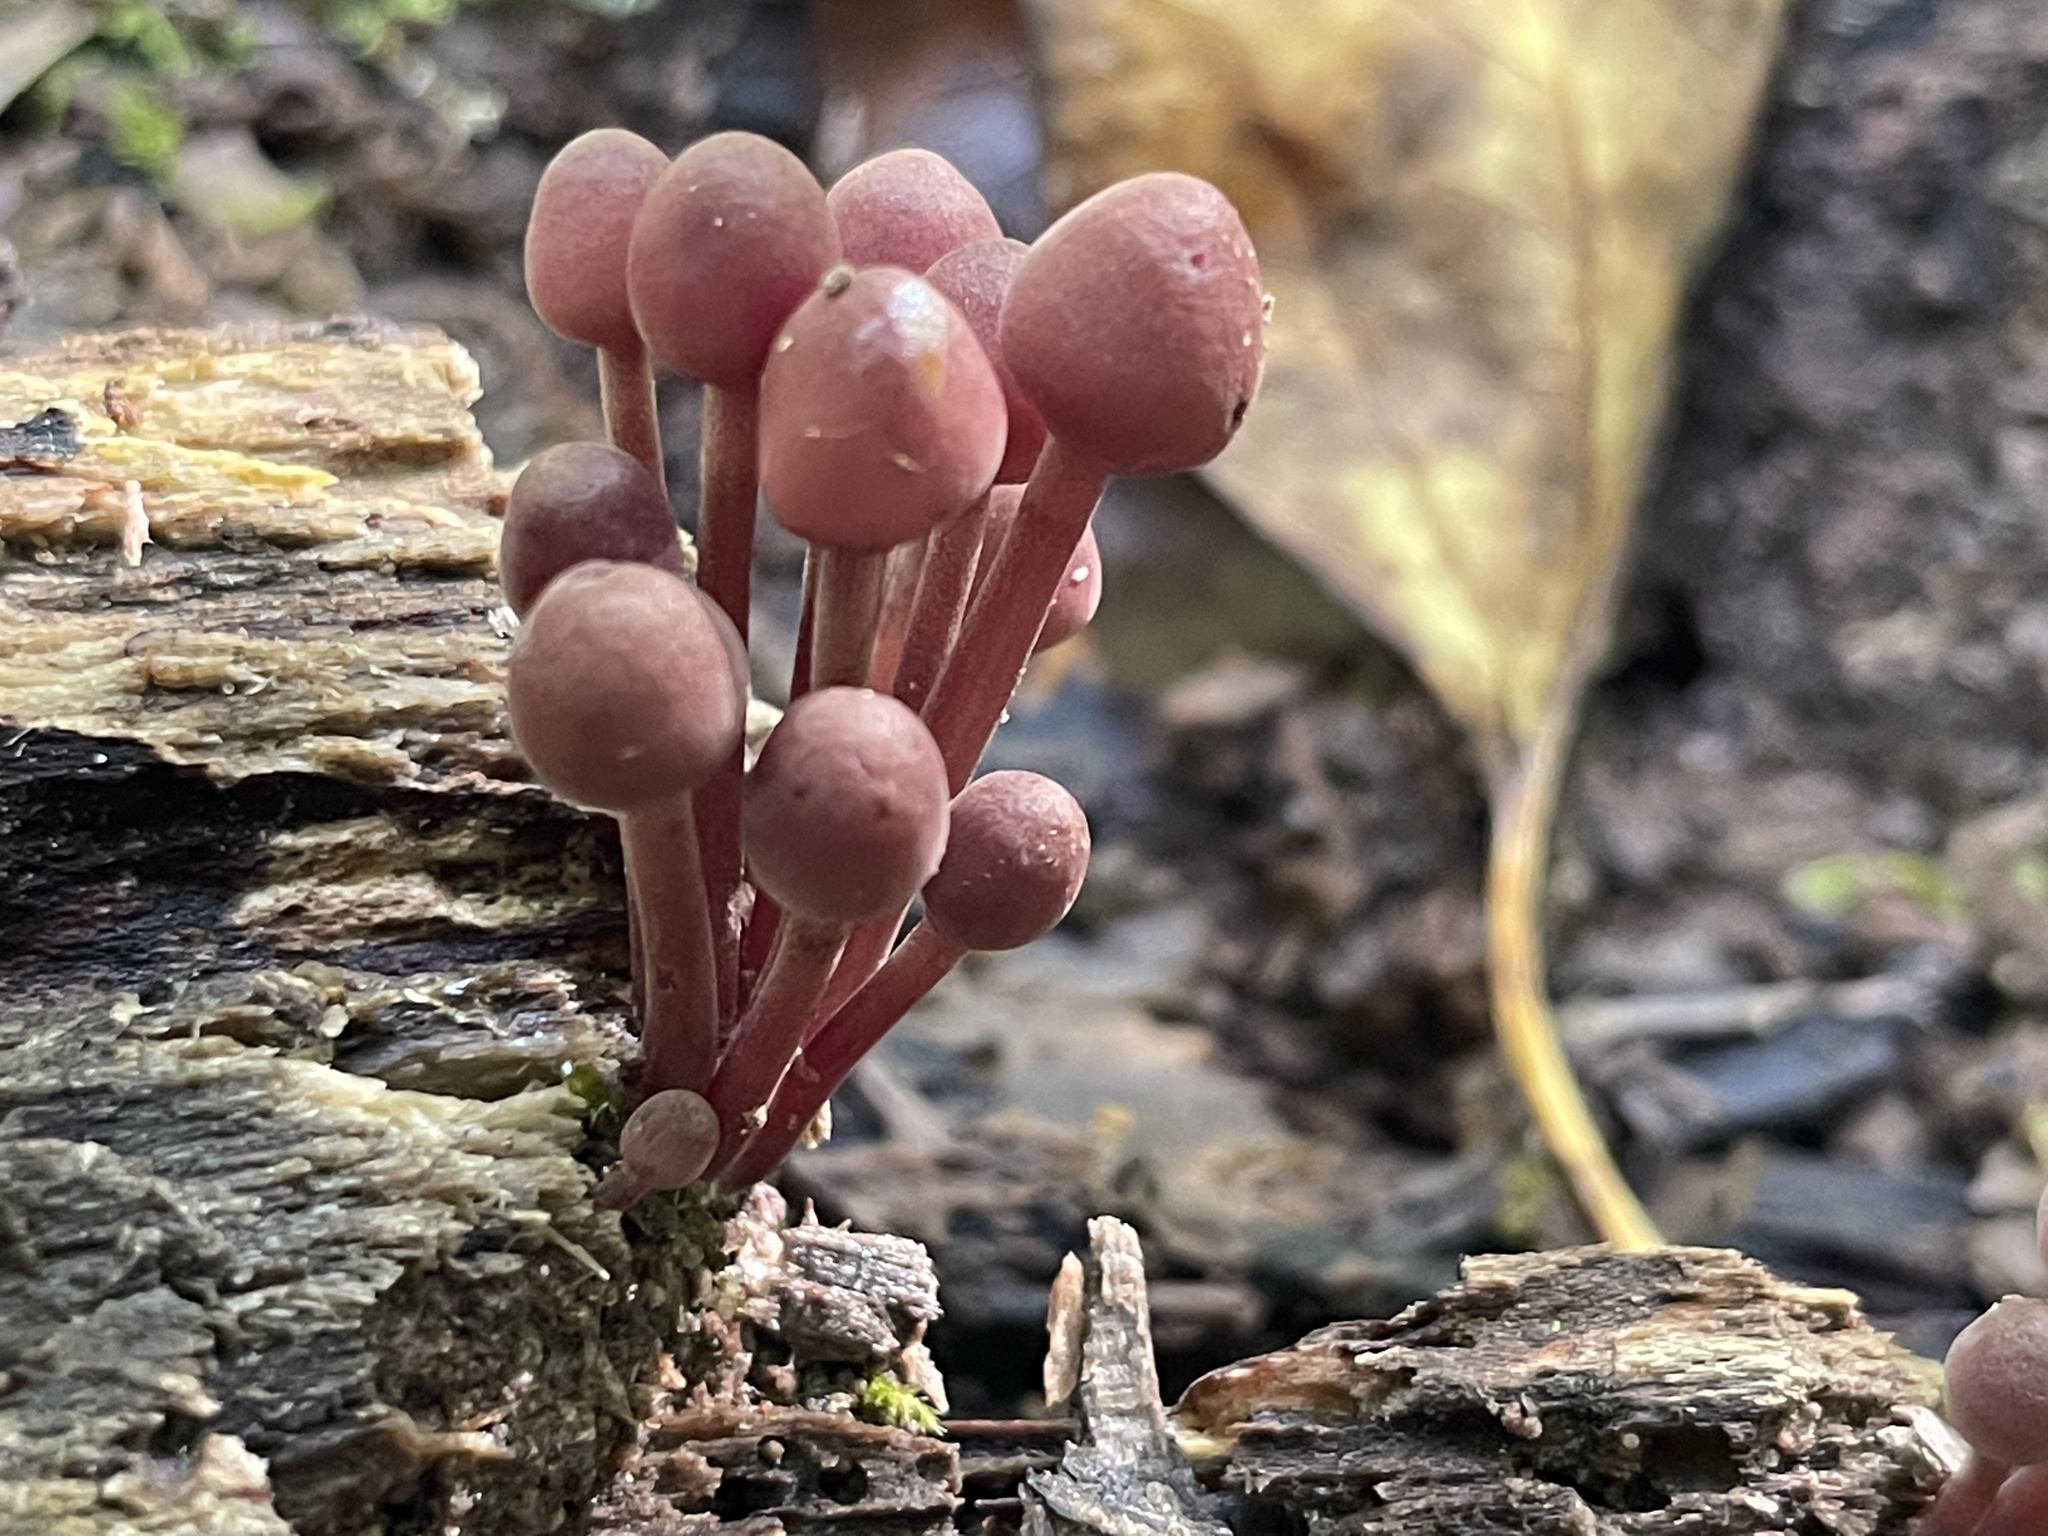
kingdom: Fungi
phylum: Basidiomycota
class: Agaricomycetes
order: Agaricales
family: Mycenaceae
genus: Mycena
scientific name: Mycena haematopus
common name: Burgundydrop bonnet
